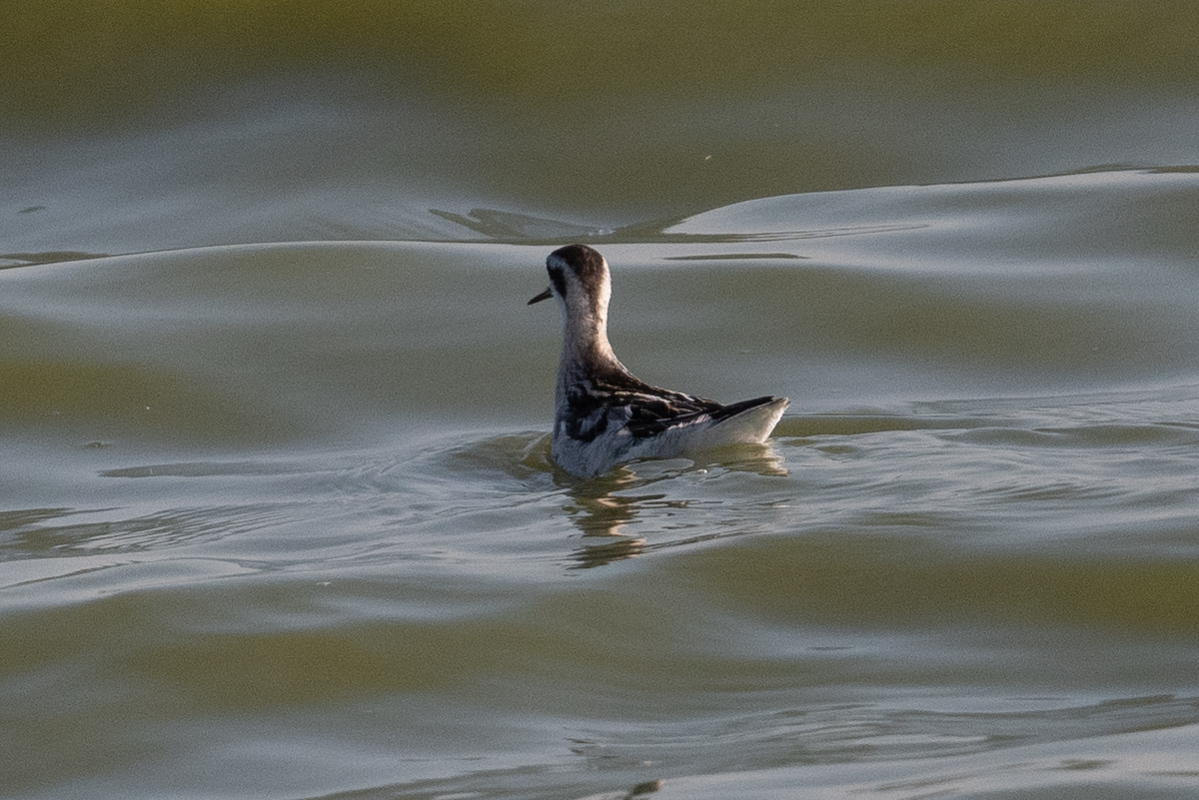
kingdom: Animalia
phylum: Chordata
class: Aves
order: Charadriiformes
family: Scolopacidae
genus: Phalaropus
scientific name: Phalaropus lobatus
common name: Red-necked phalarope
